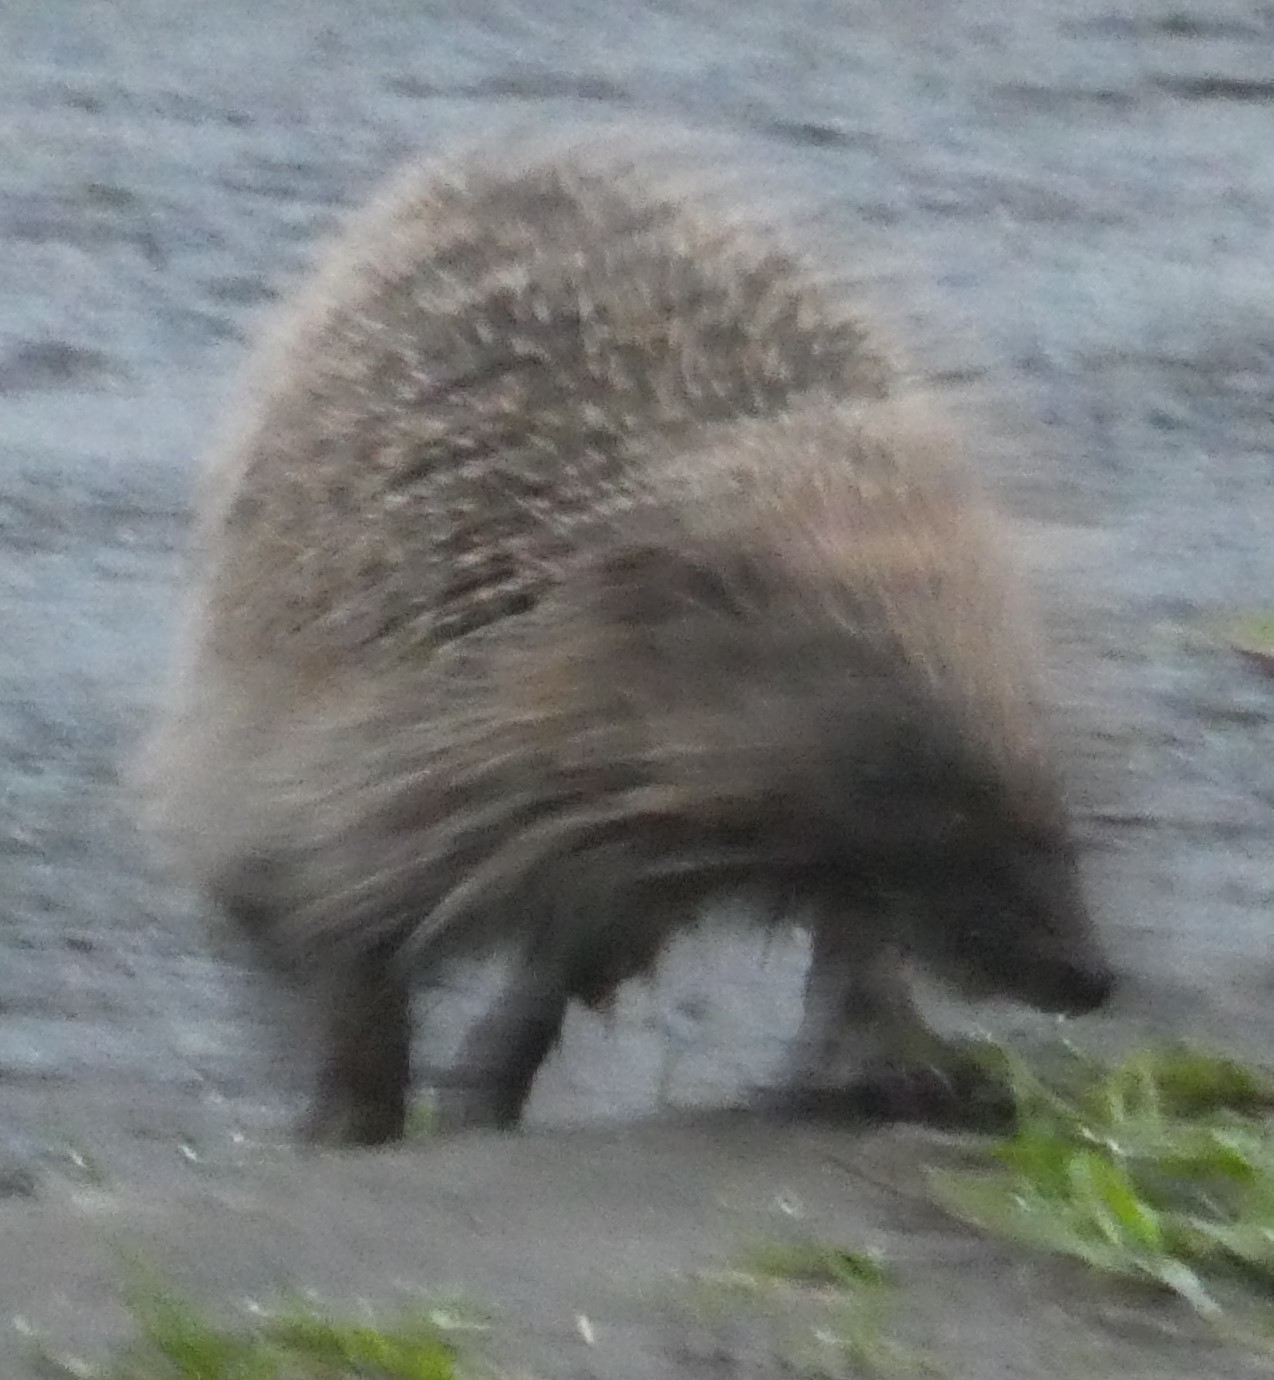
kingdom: Animalia
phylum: Chordata
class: Mammalia
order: Erinaceomorpha
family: Erinaceidae
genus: Erinaceus
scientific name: Erinaceus europaeus
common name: West european hedgehog
